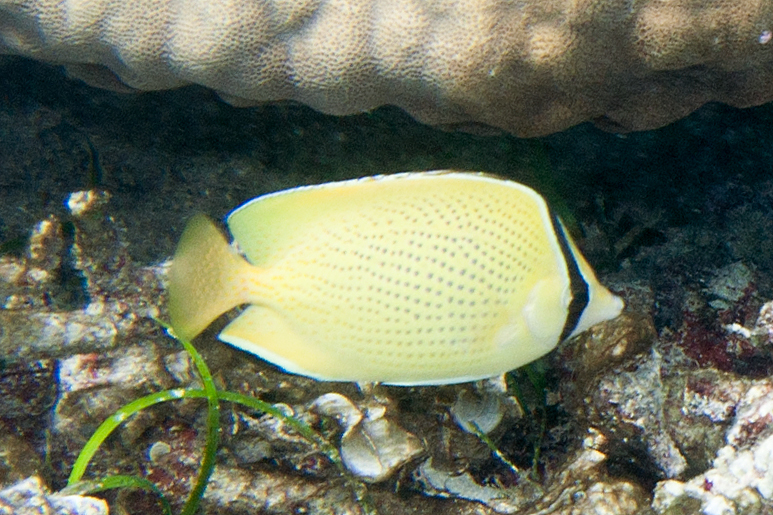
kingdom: Animalia
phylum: Chordata
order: Perciformes
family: Chaetodontidae
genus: Chaetodon
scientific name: Chaetodon citrinellus
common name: Speckled butterflyfish
